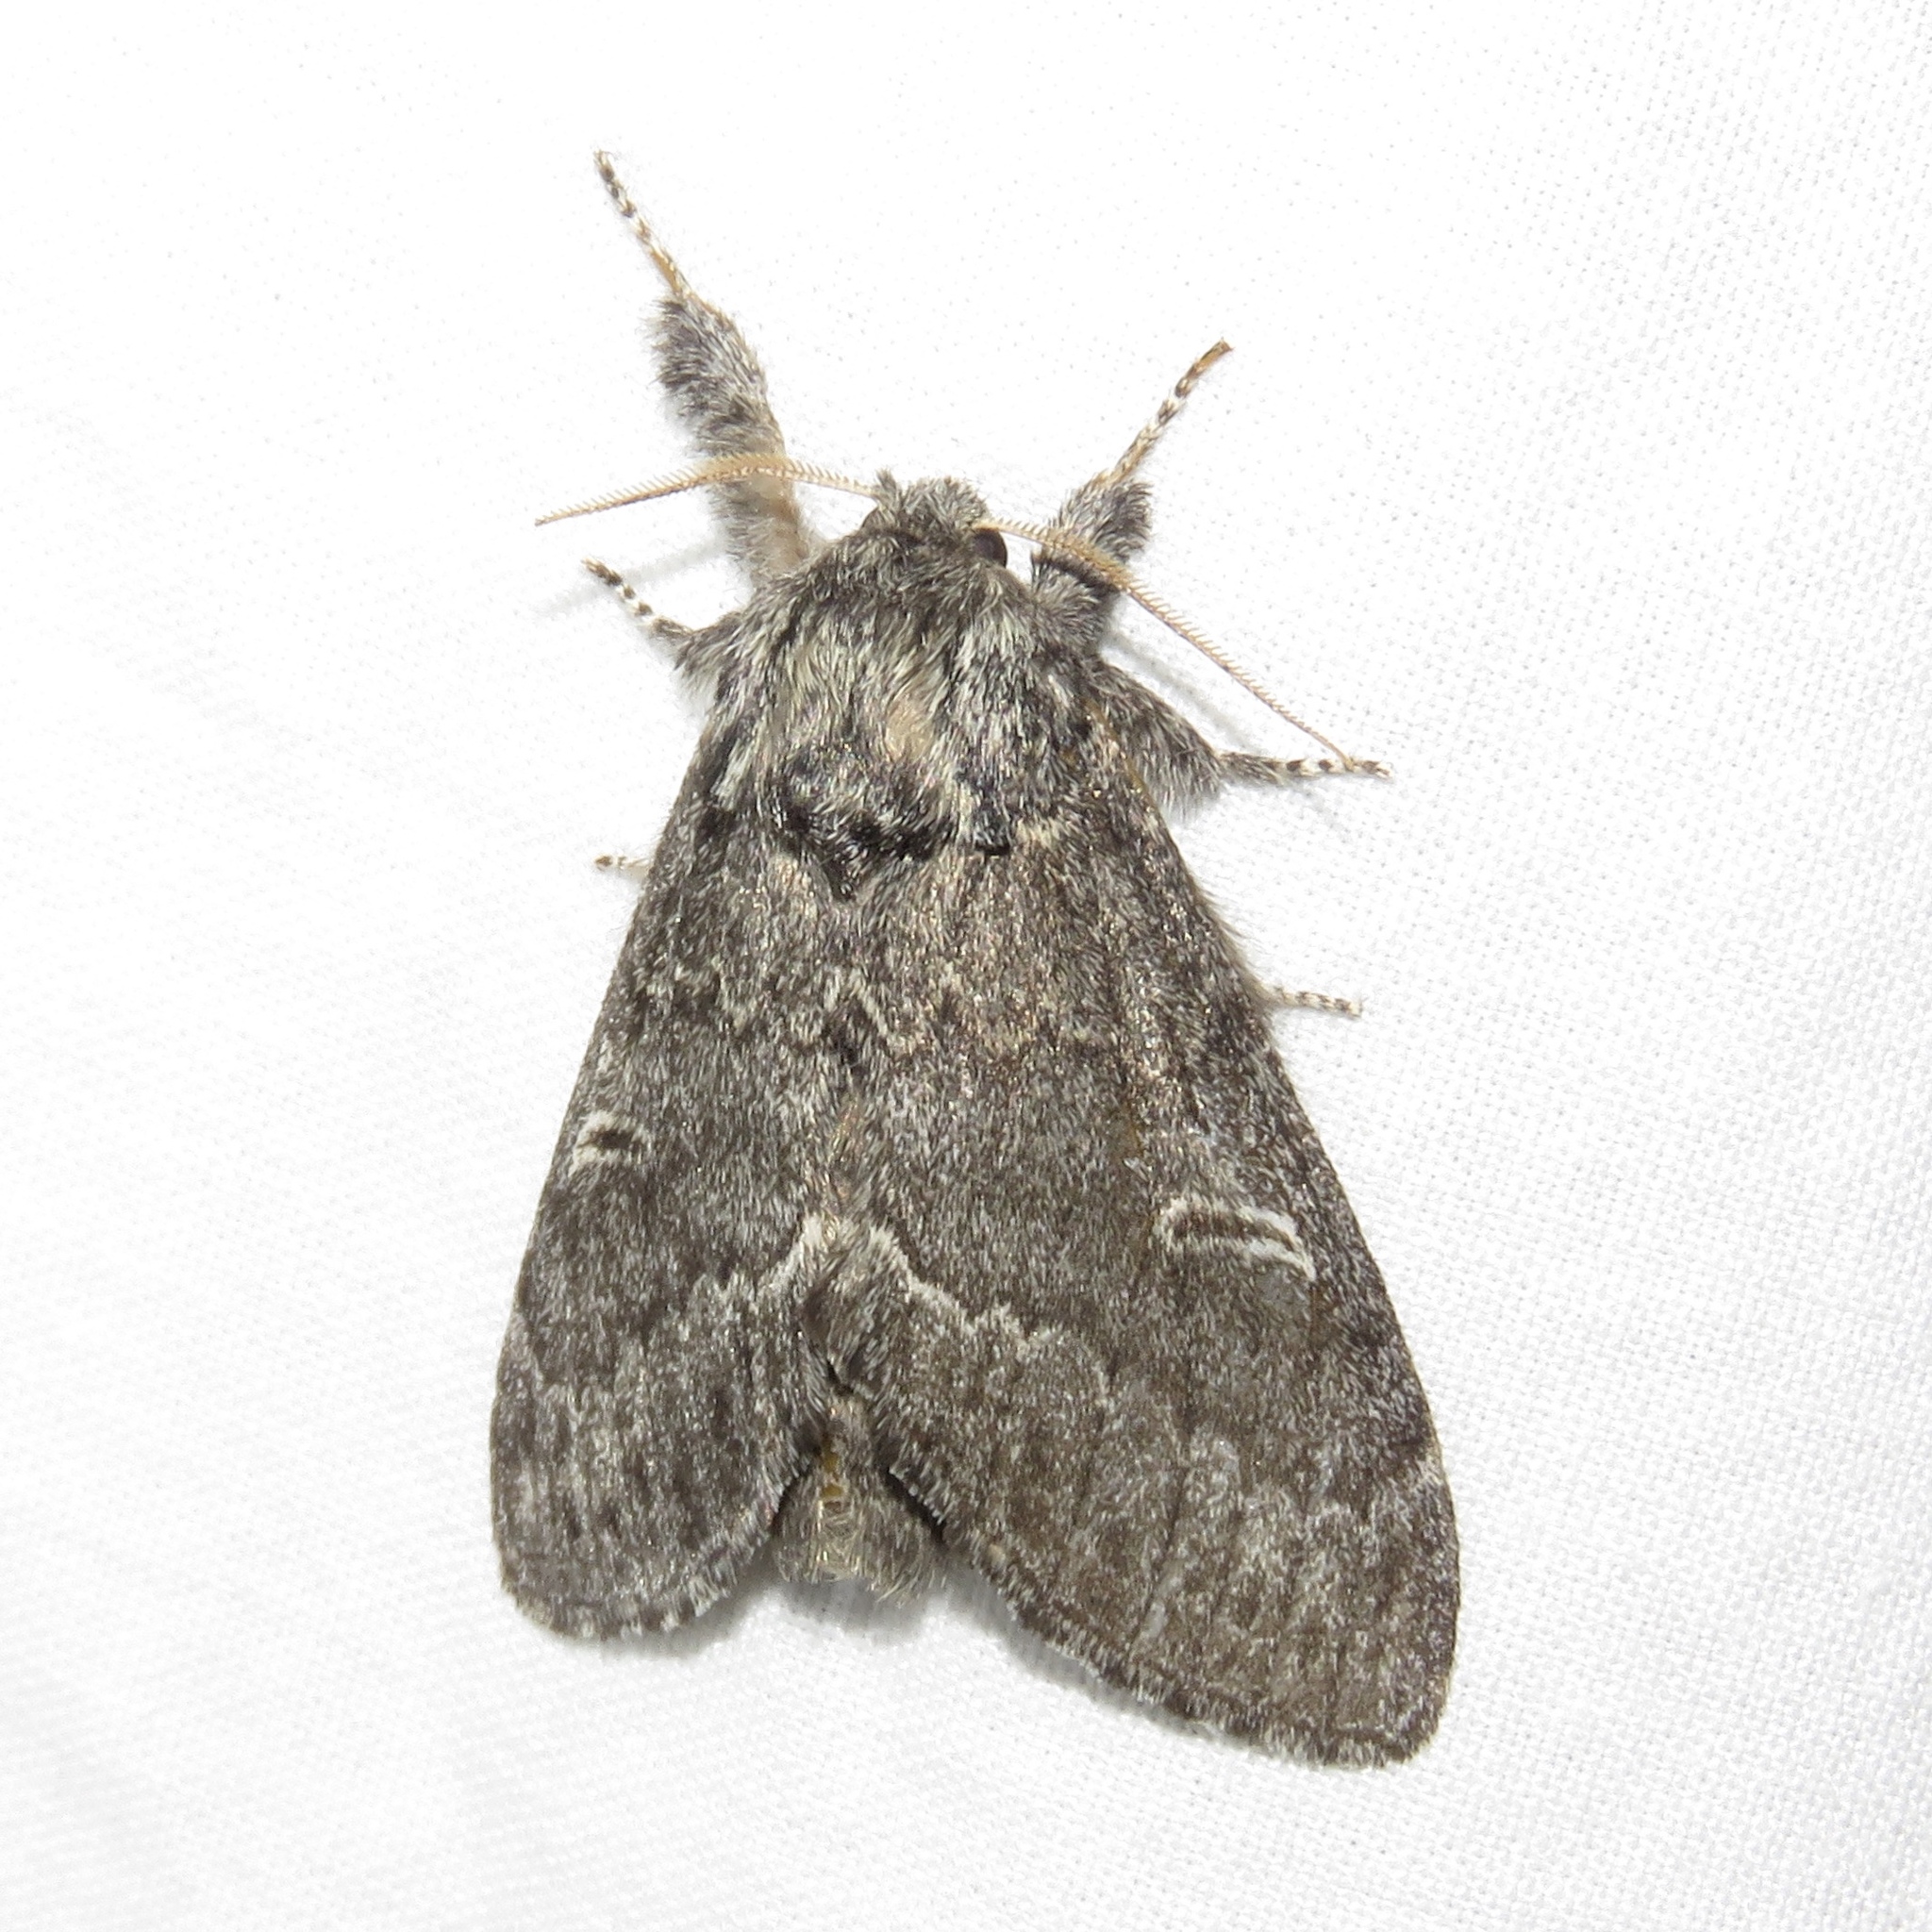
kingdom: Animalia
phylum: Arthropoda
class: Insecta
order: Lepidoptera
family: Notodontidae
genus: Notodonta
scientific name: Notodonta torva
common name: Large dark prominent
